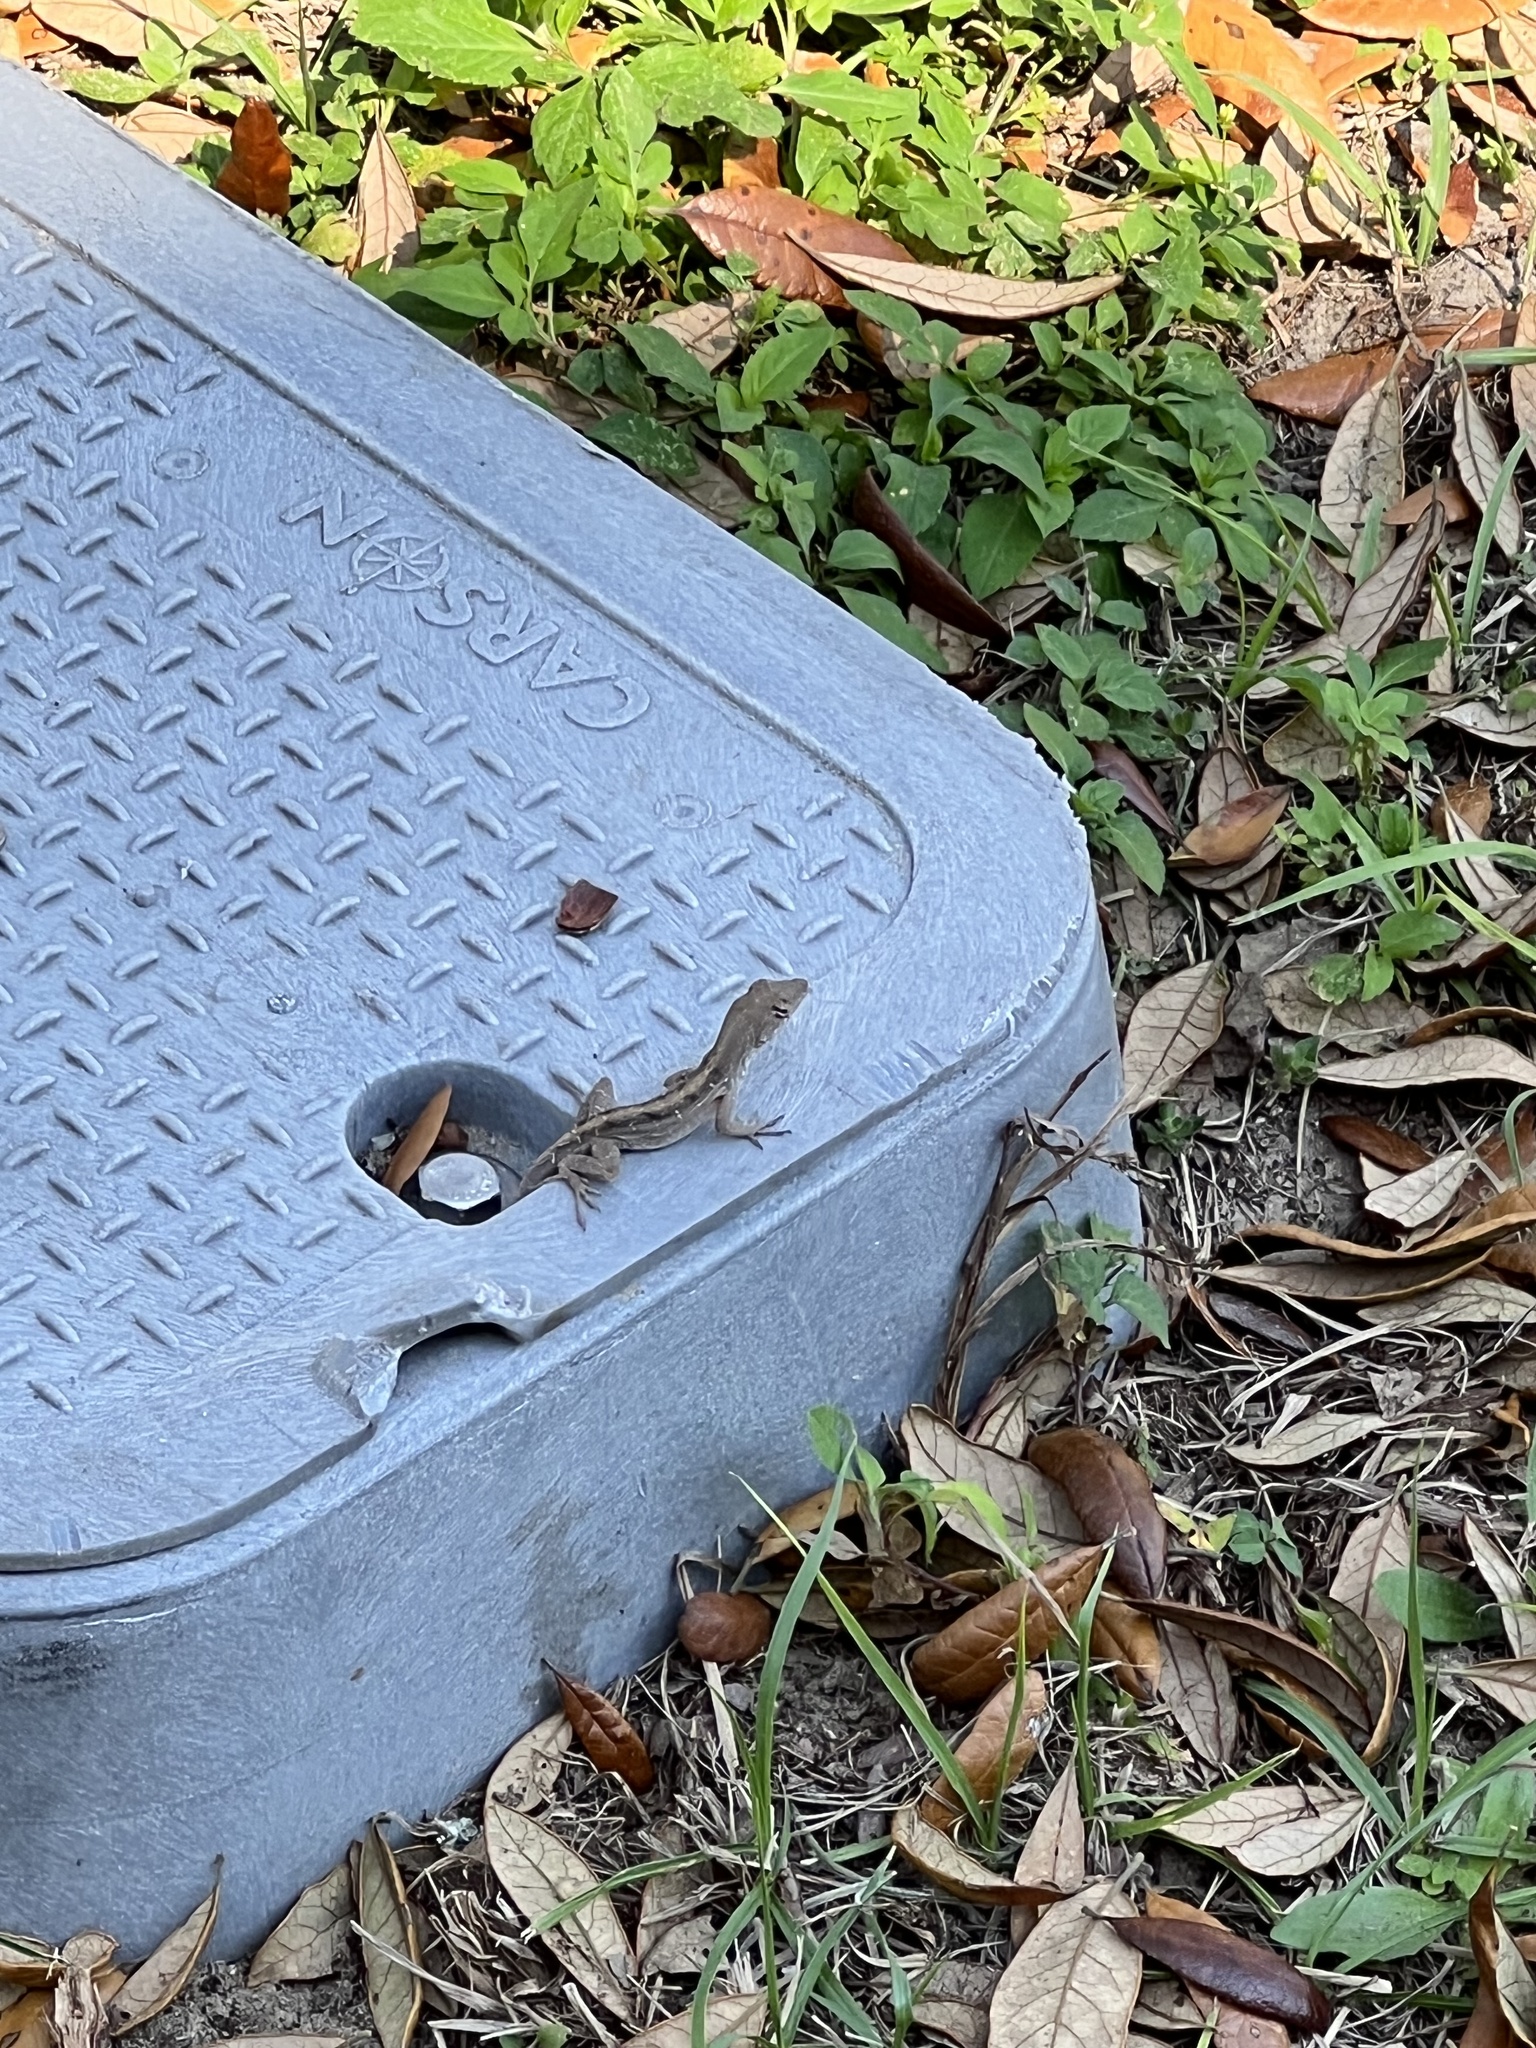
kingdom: Animalia
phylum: Chordata
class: Squamata
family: Dactyloidae
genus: Anolis
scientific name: Anolis sagrei
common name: Brown anole
